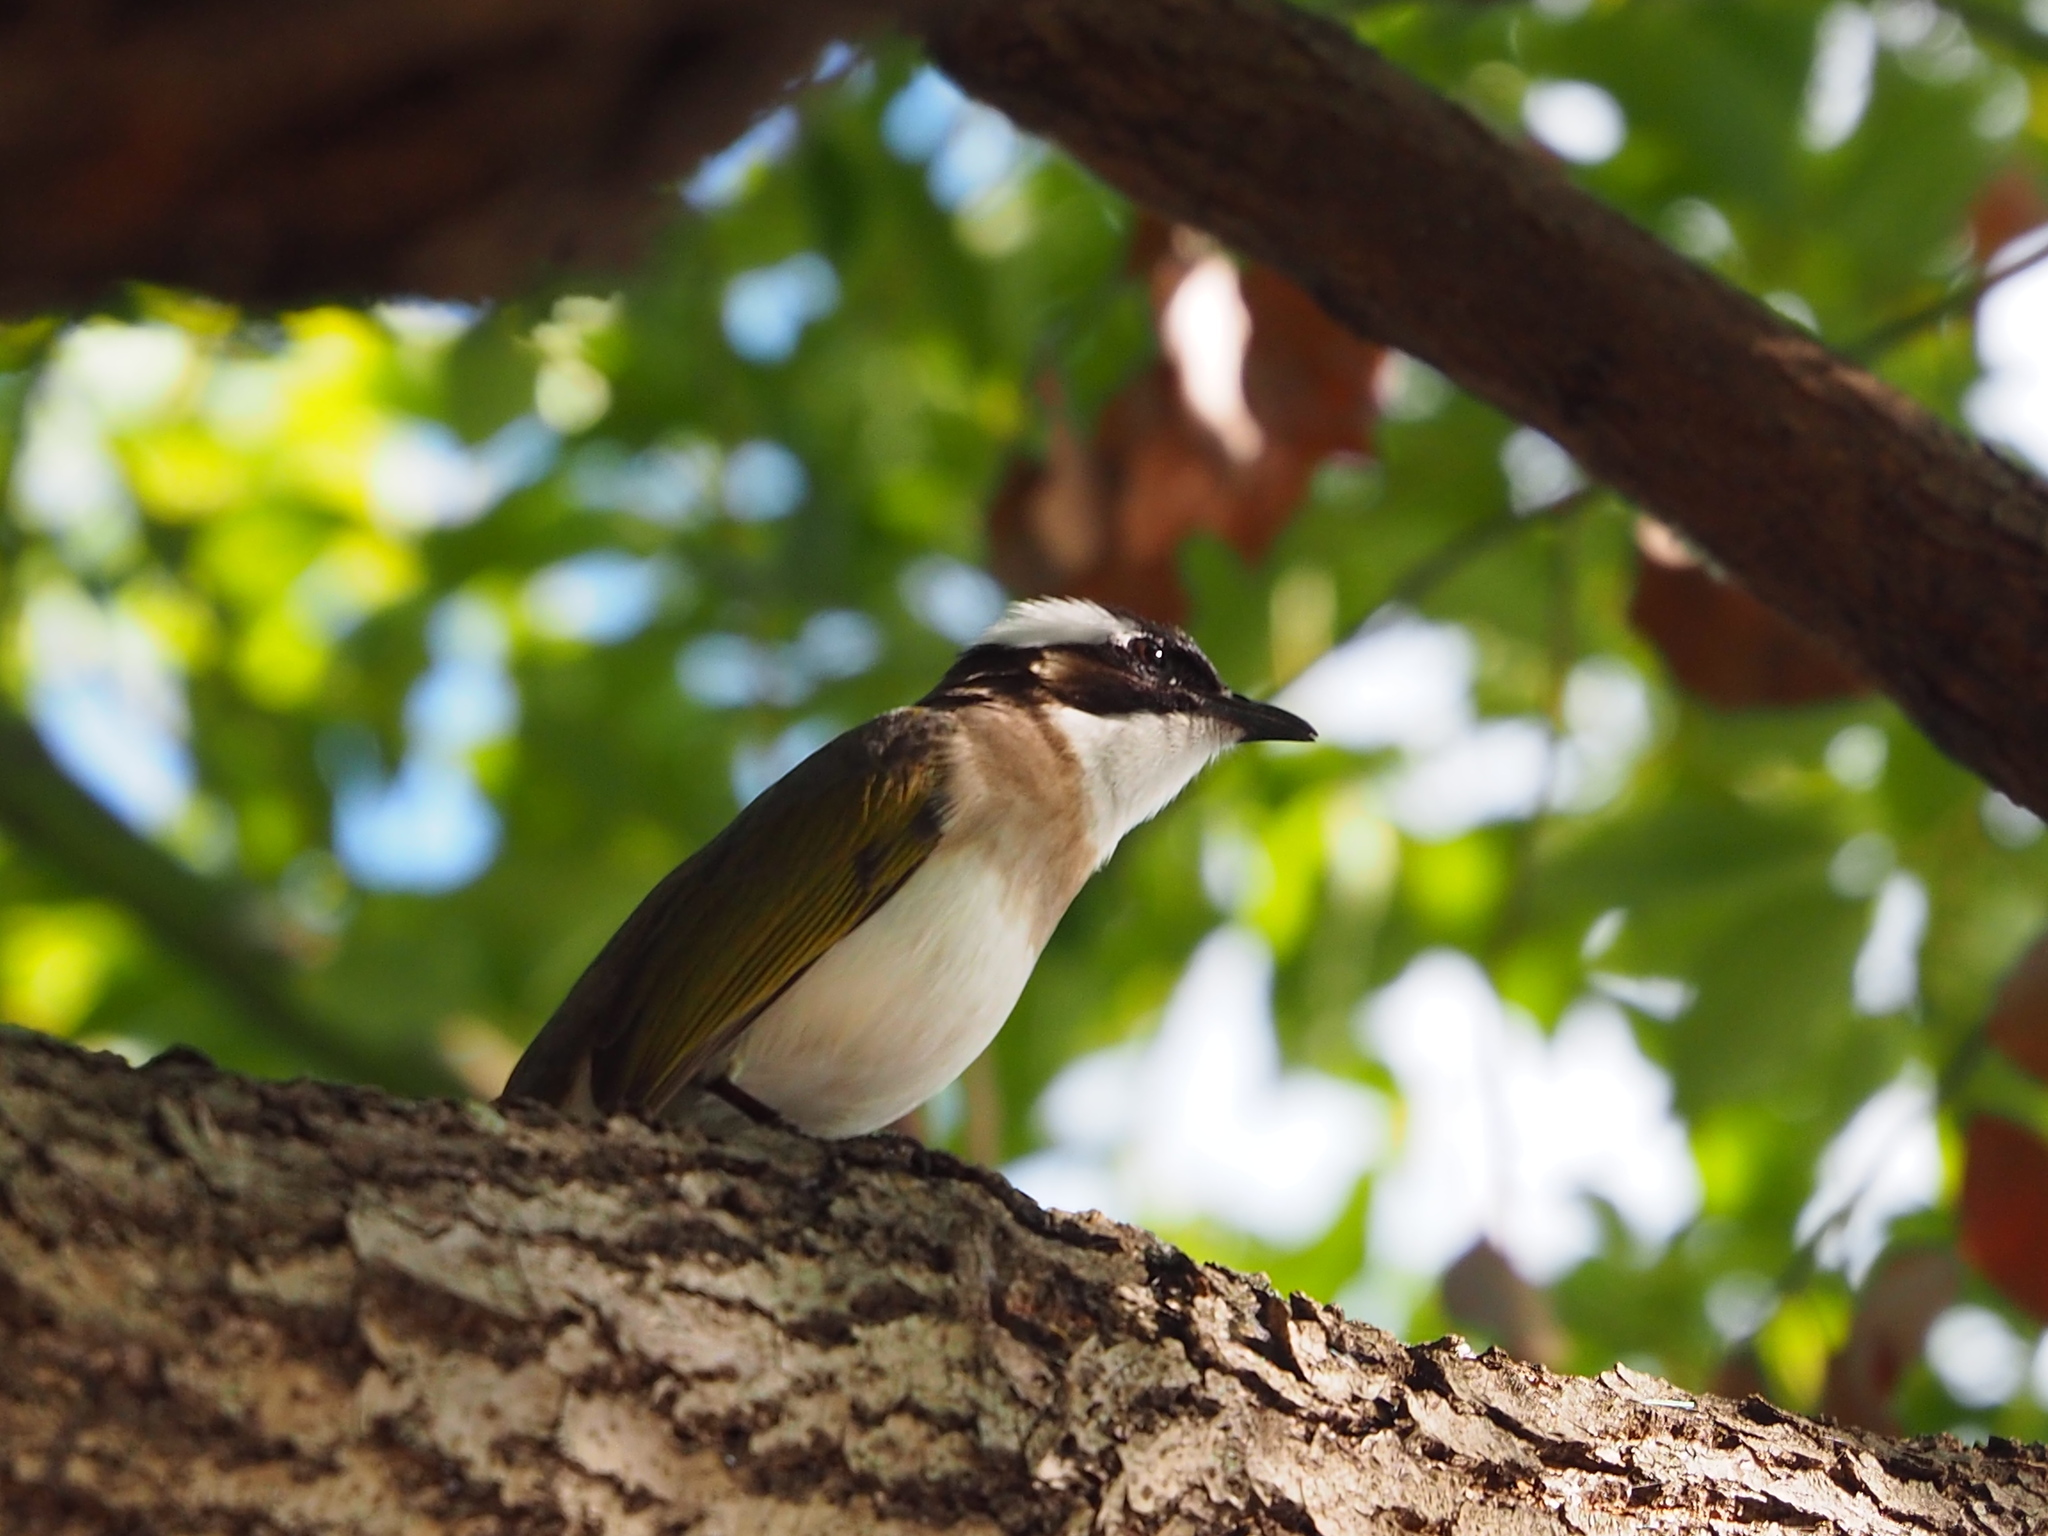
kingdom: Animalia
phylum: Chordata
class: Aves
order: Passeriformes
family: Pycnonotidae
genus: Pycnonotus
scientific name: Pycnonotus sinensis
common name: Light-vented bulbul
